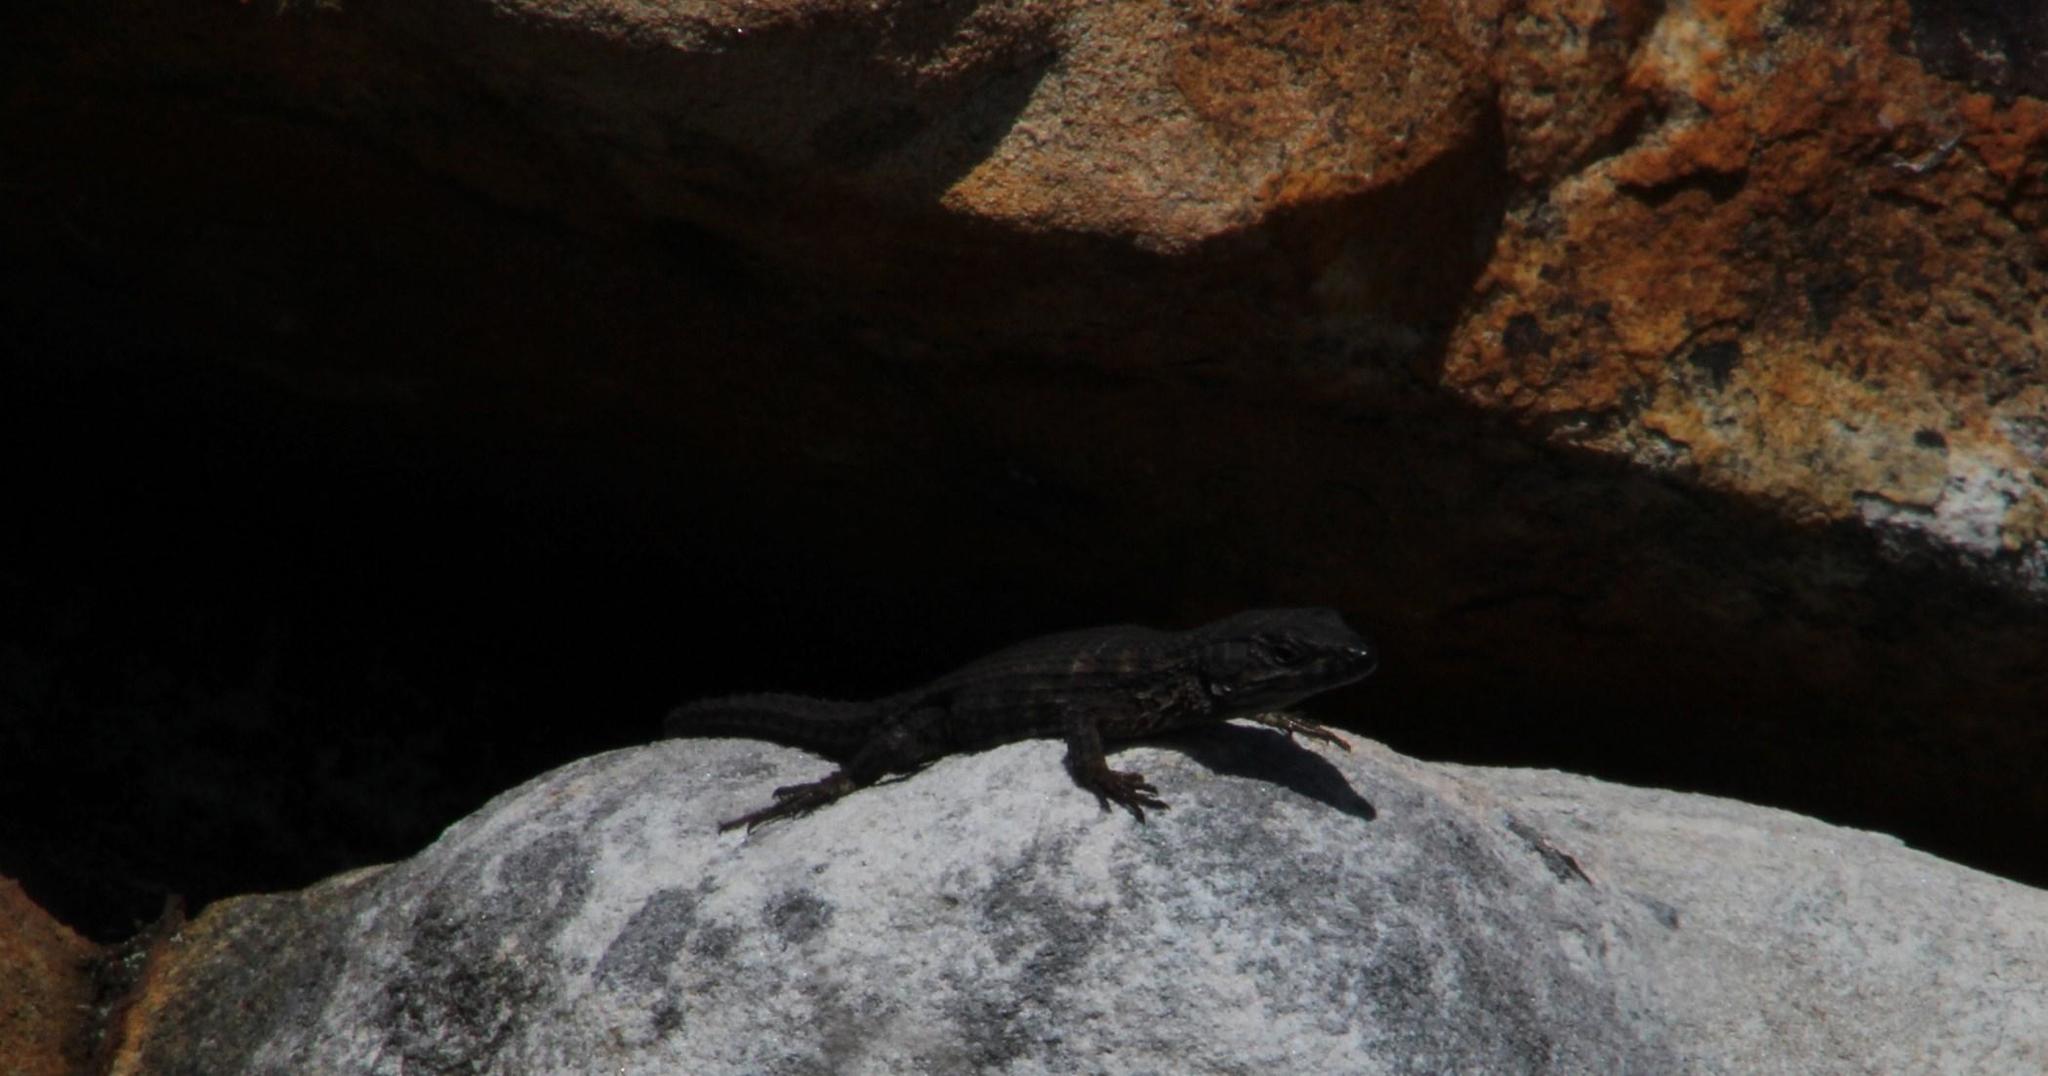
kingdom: Animalia
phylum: Chordata
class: Squamata
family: Cordylidae
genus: Cordylus
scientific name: Cordylus niger
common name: Black girdled lizard
